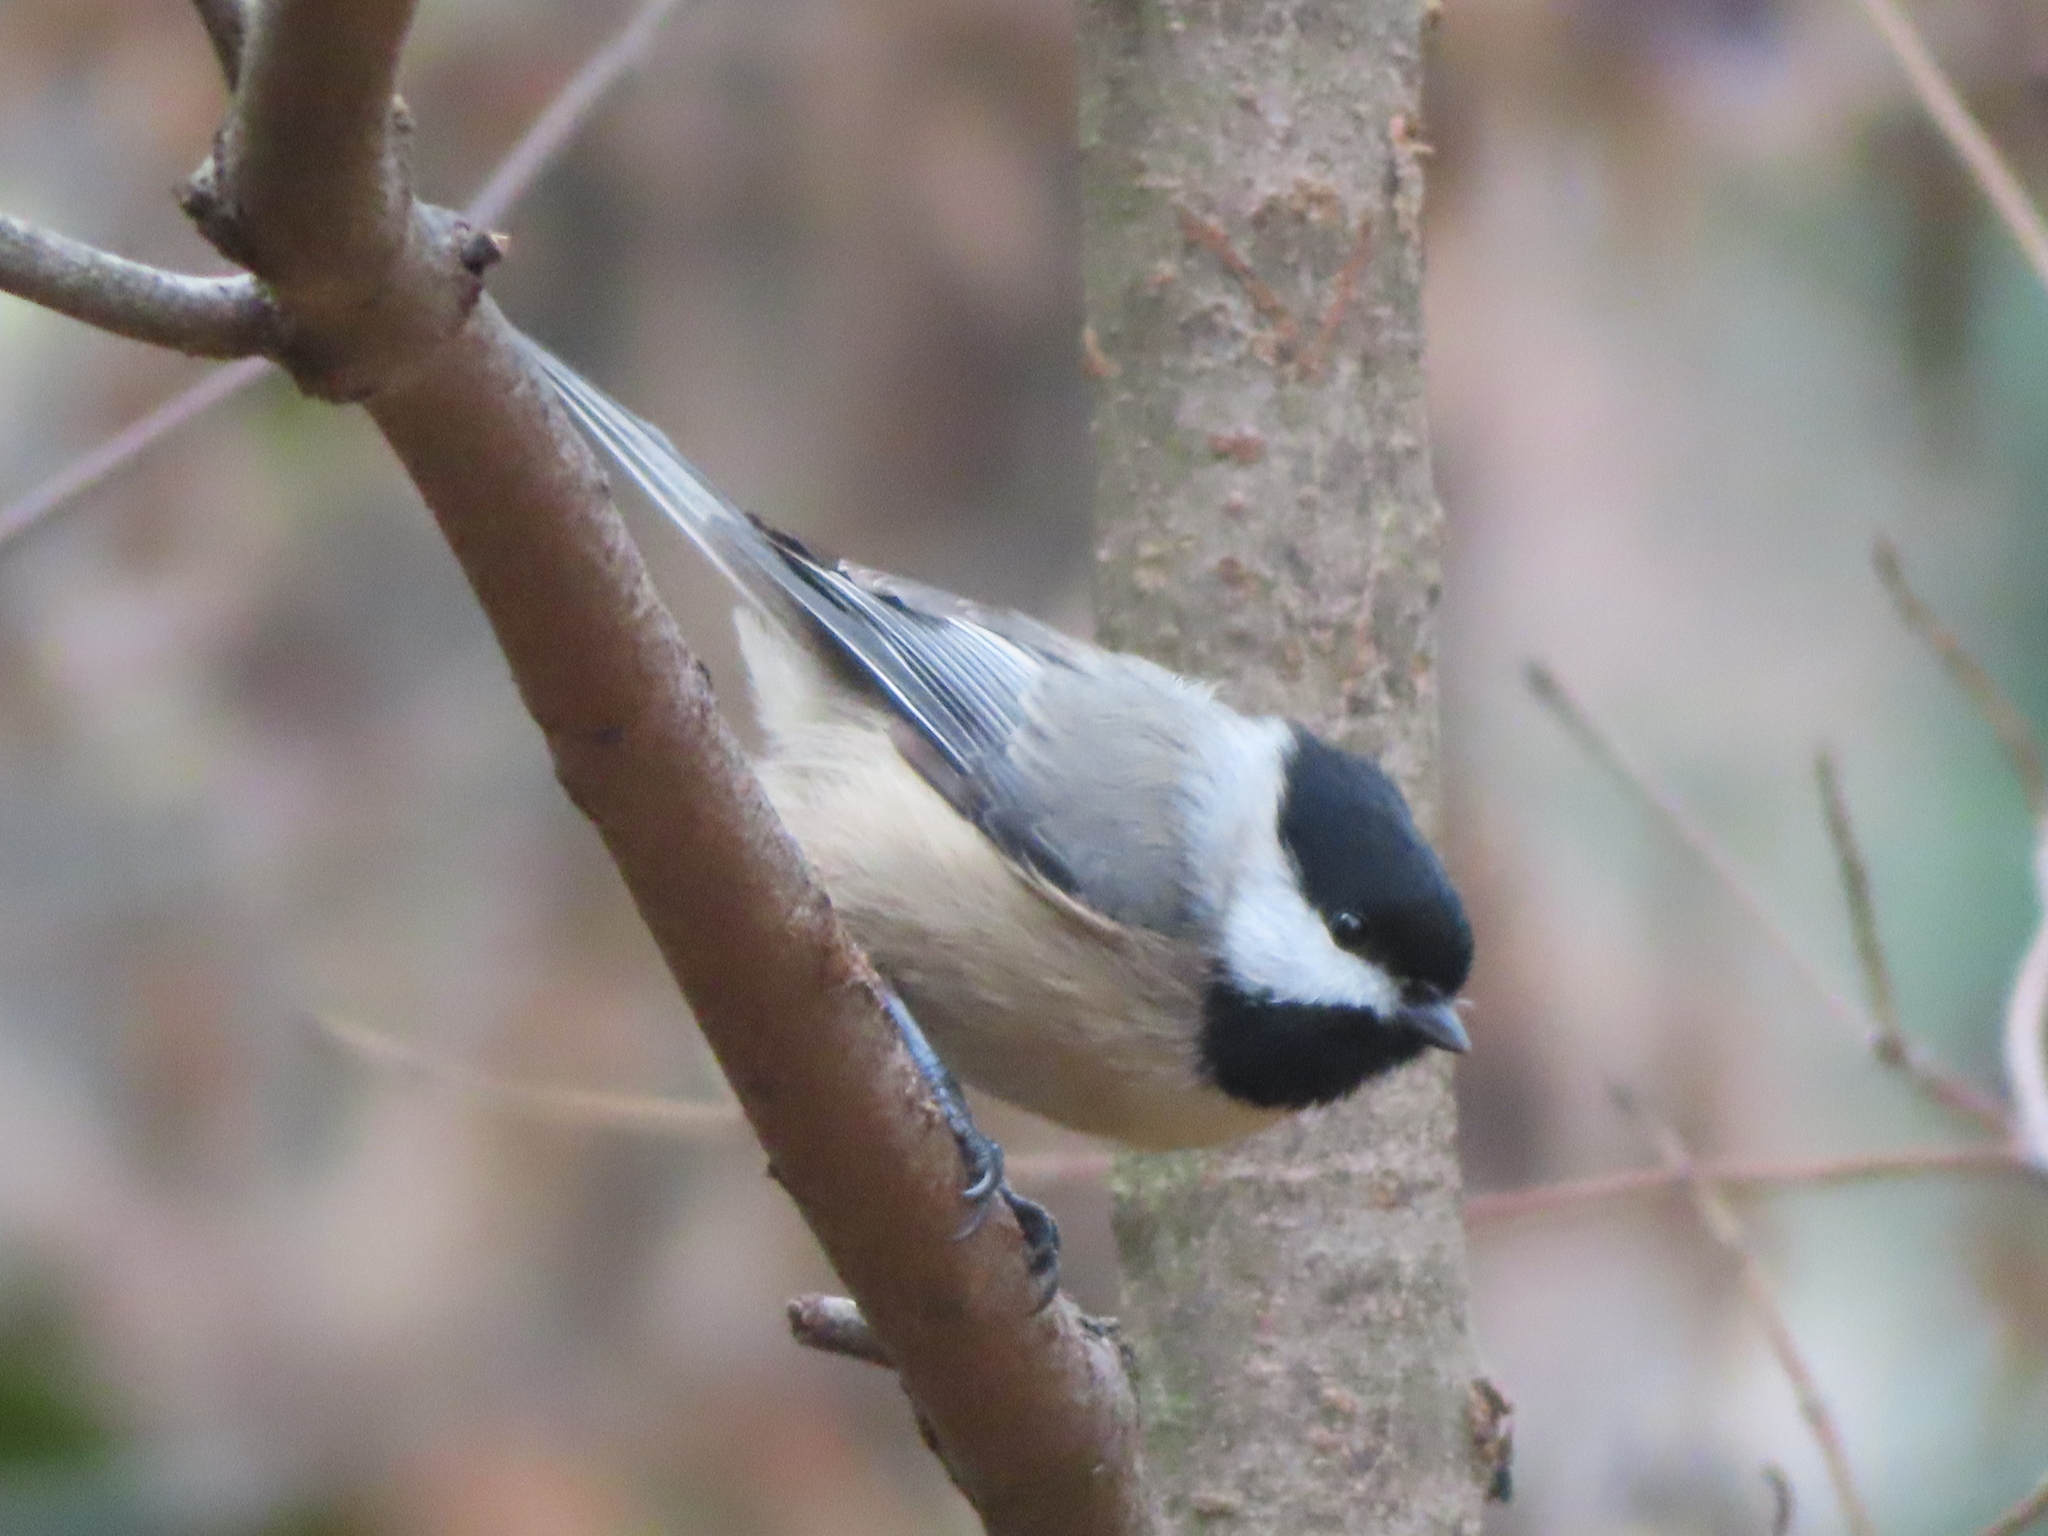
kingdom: Animalia
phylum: Chordata
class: Aves
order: Passeriformes
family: Paridae
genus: Poecile
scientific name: Poecile carolinensis
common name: Carolina chickadee
